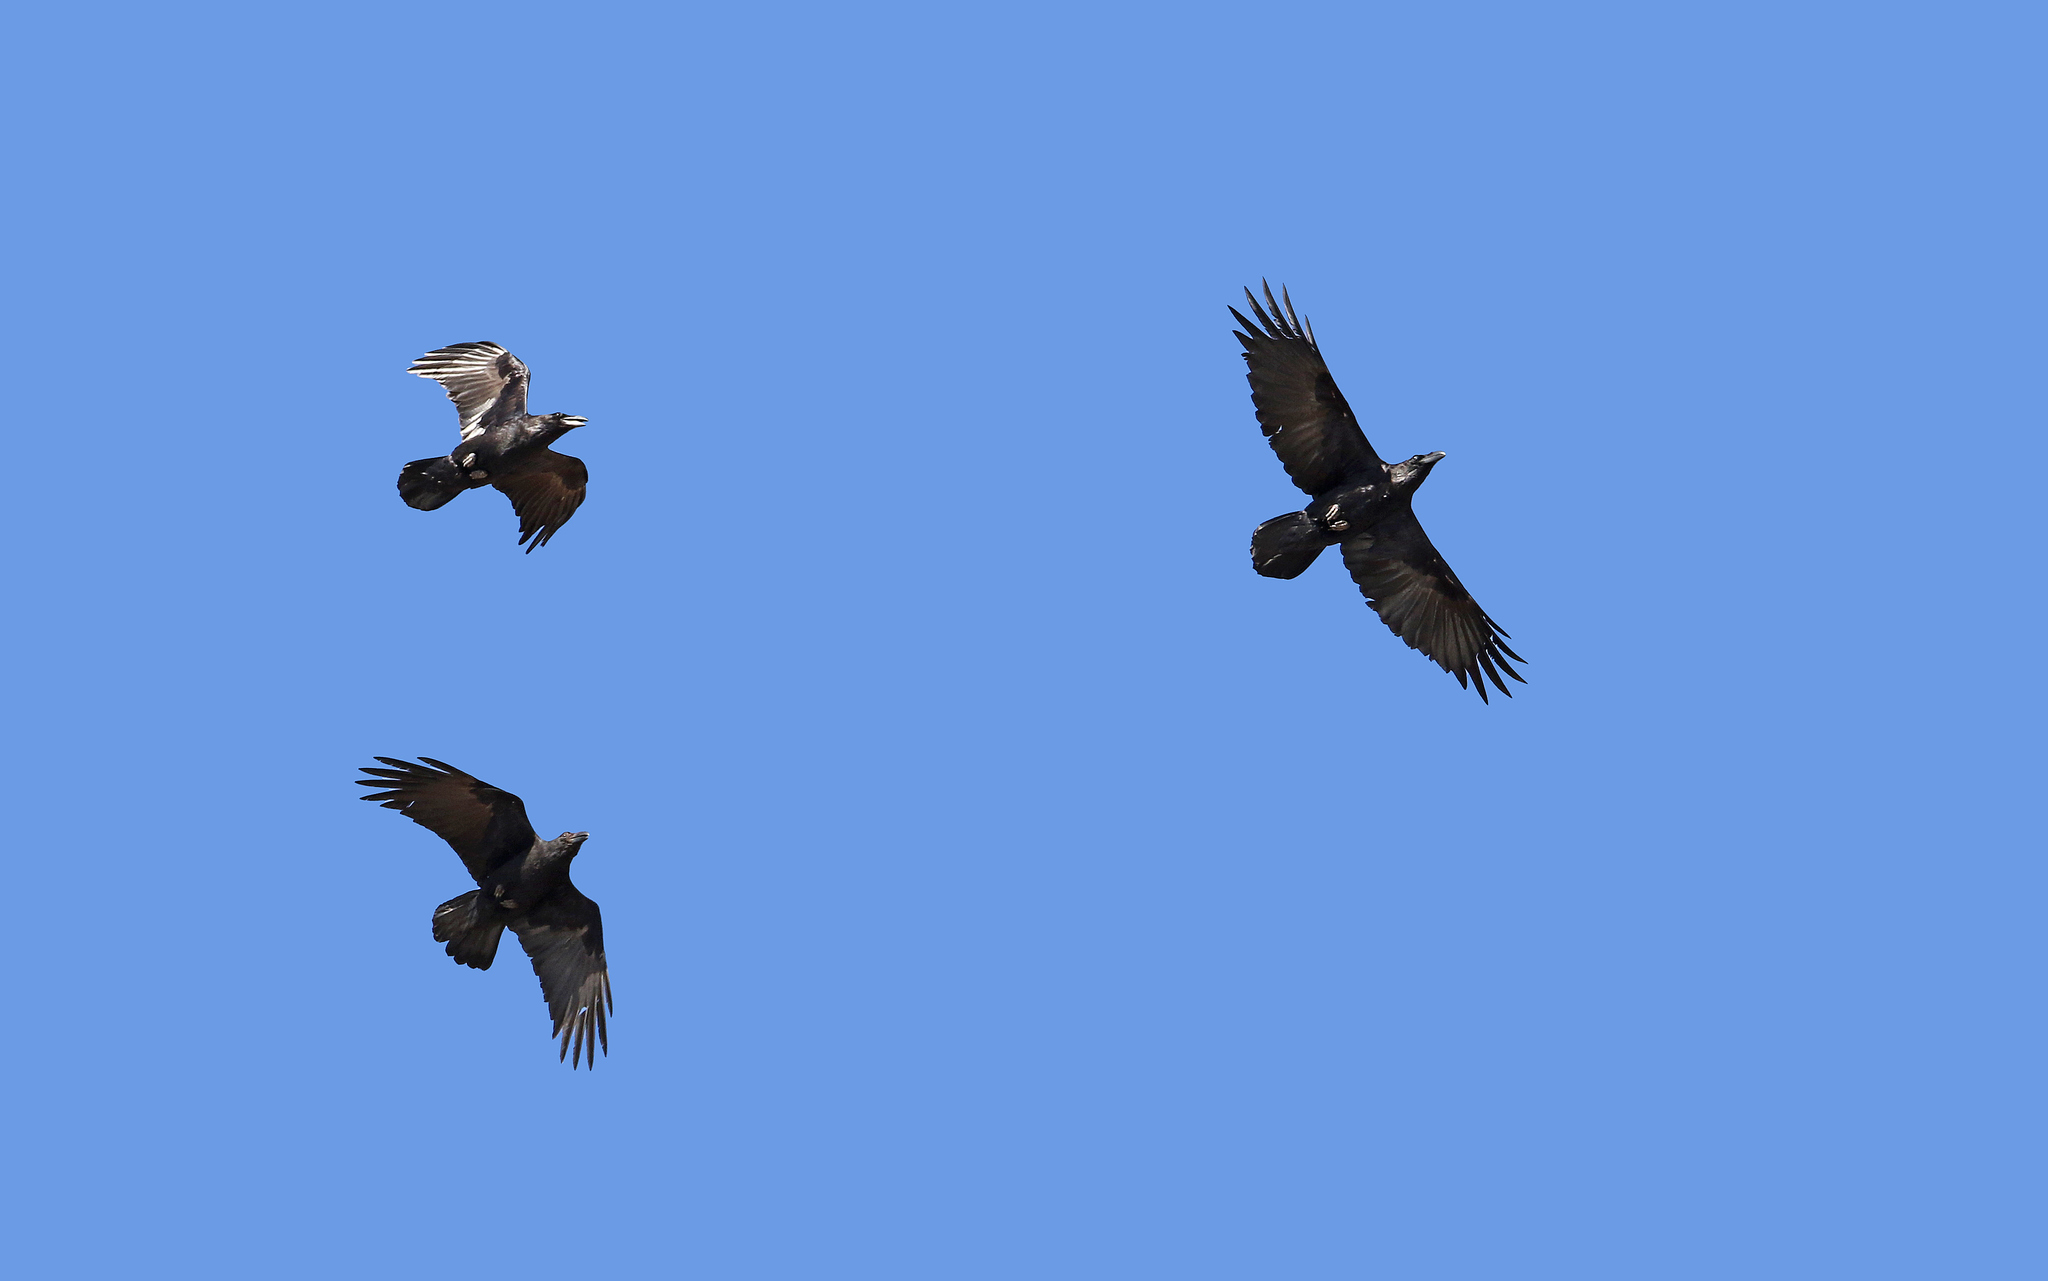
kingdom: Animalia
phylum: Chordata
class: Aves
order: Passeriformes
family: Corvidae
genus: Corvus
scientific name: Corvus corax
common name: Common raven
